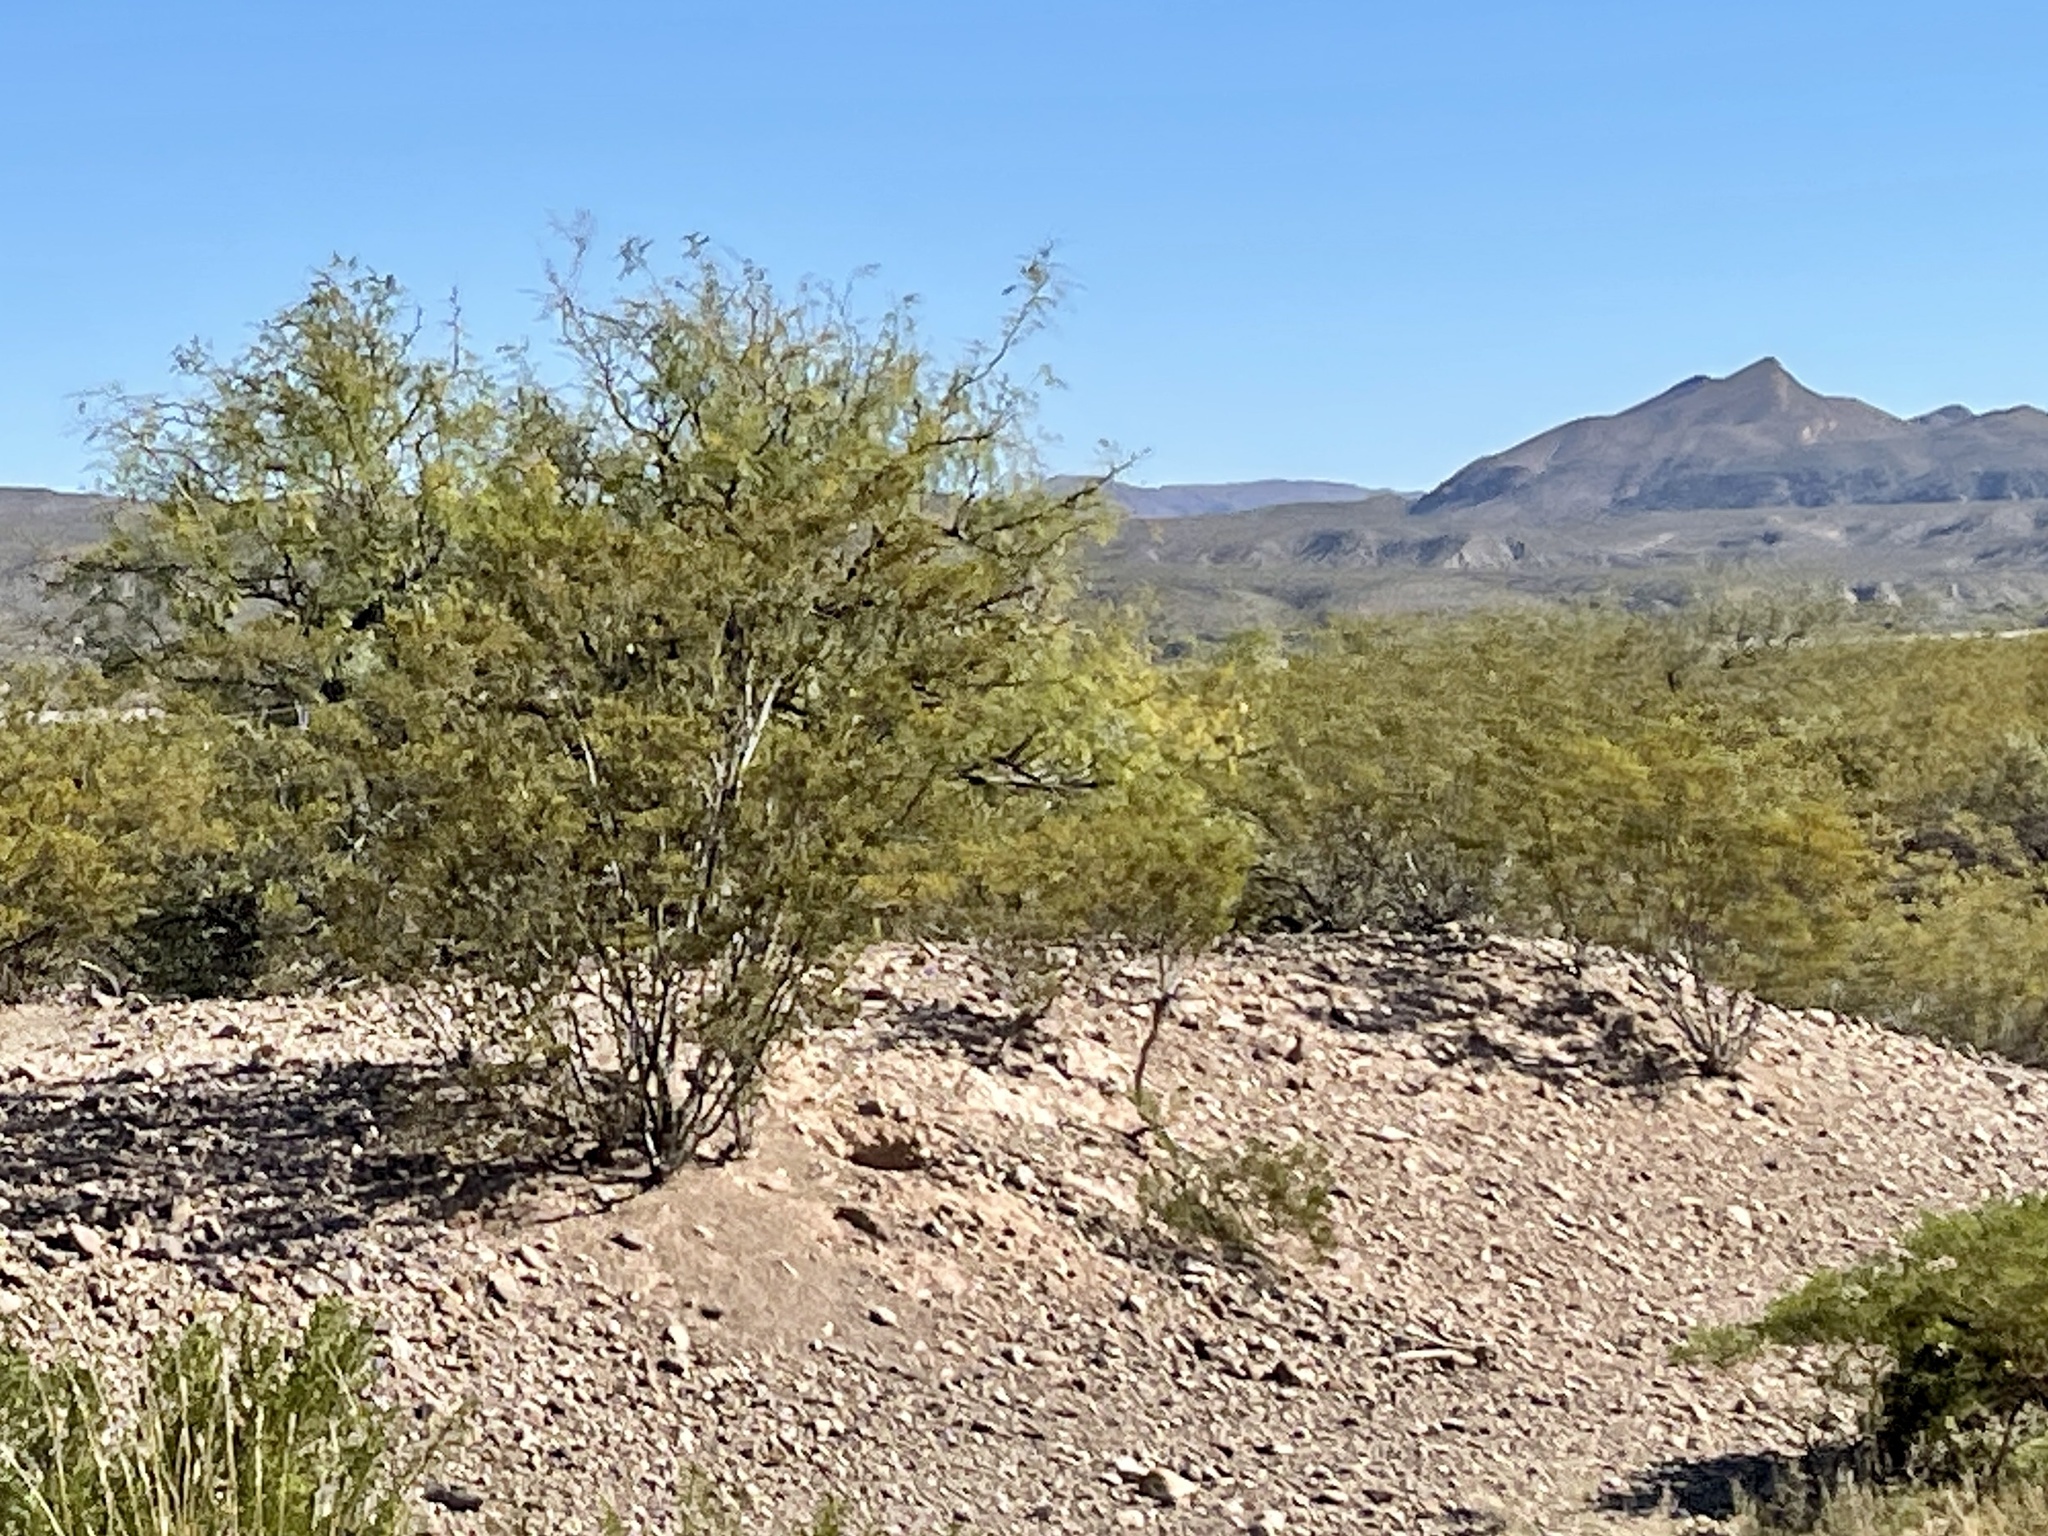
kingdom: Plantae
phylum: Tracheophyta
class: Magnoliopsida
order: Zygophyllales
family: Zygophyllaceae
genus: Larrea
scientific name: Larrea tridentata
